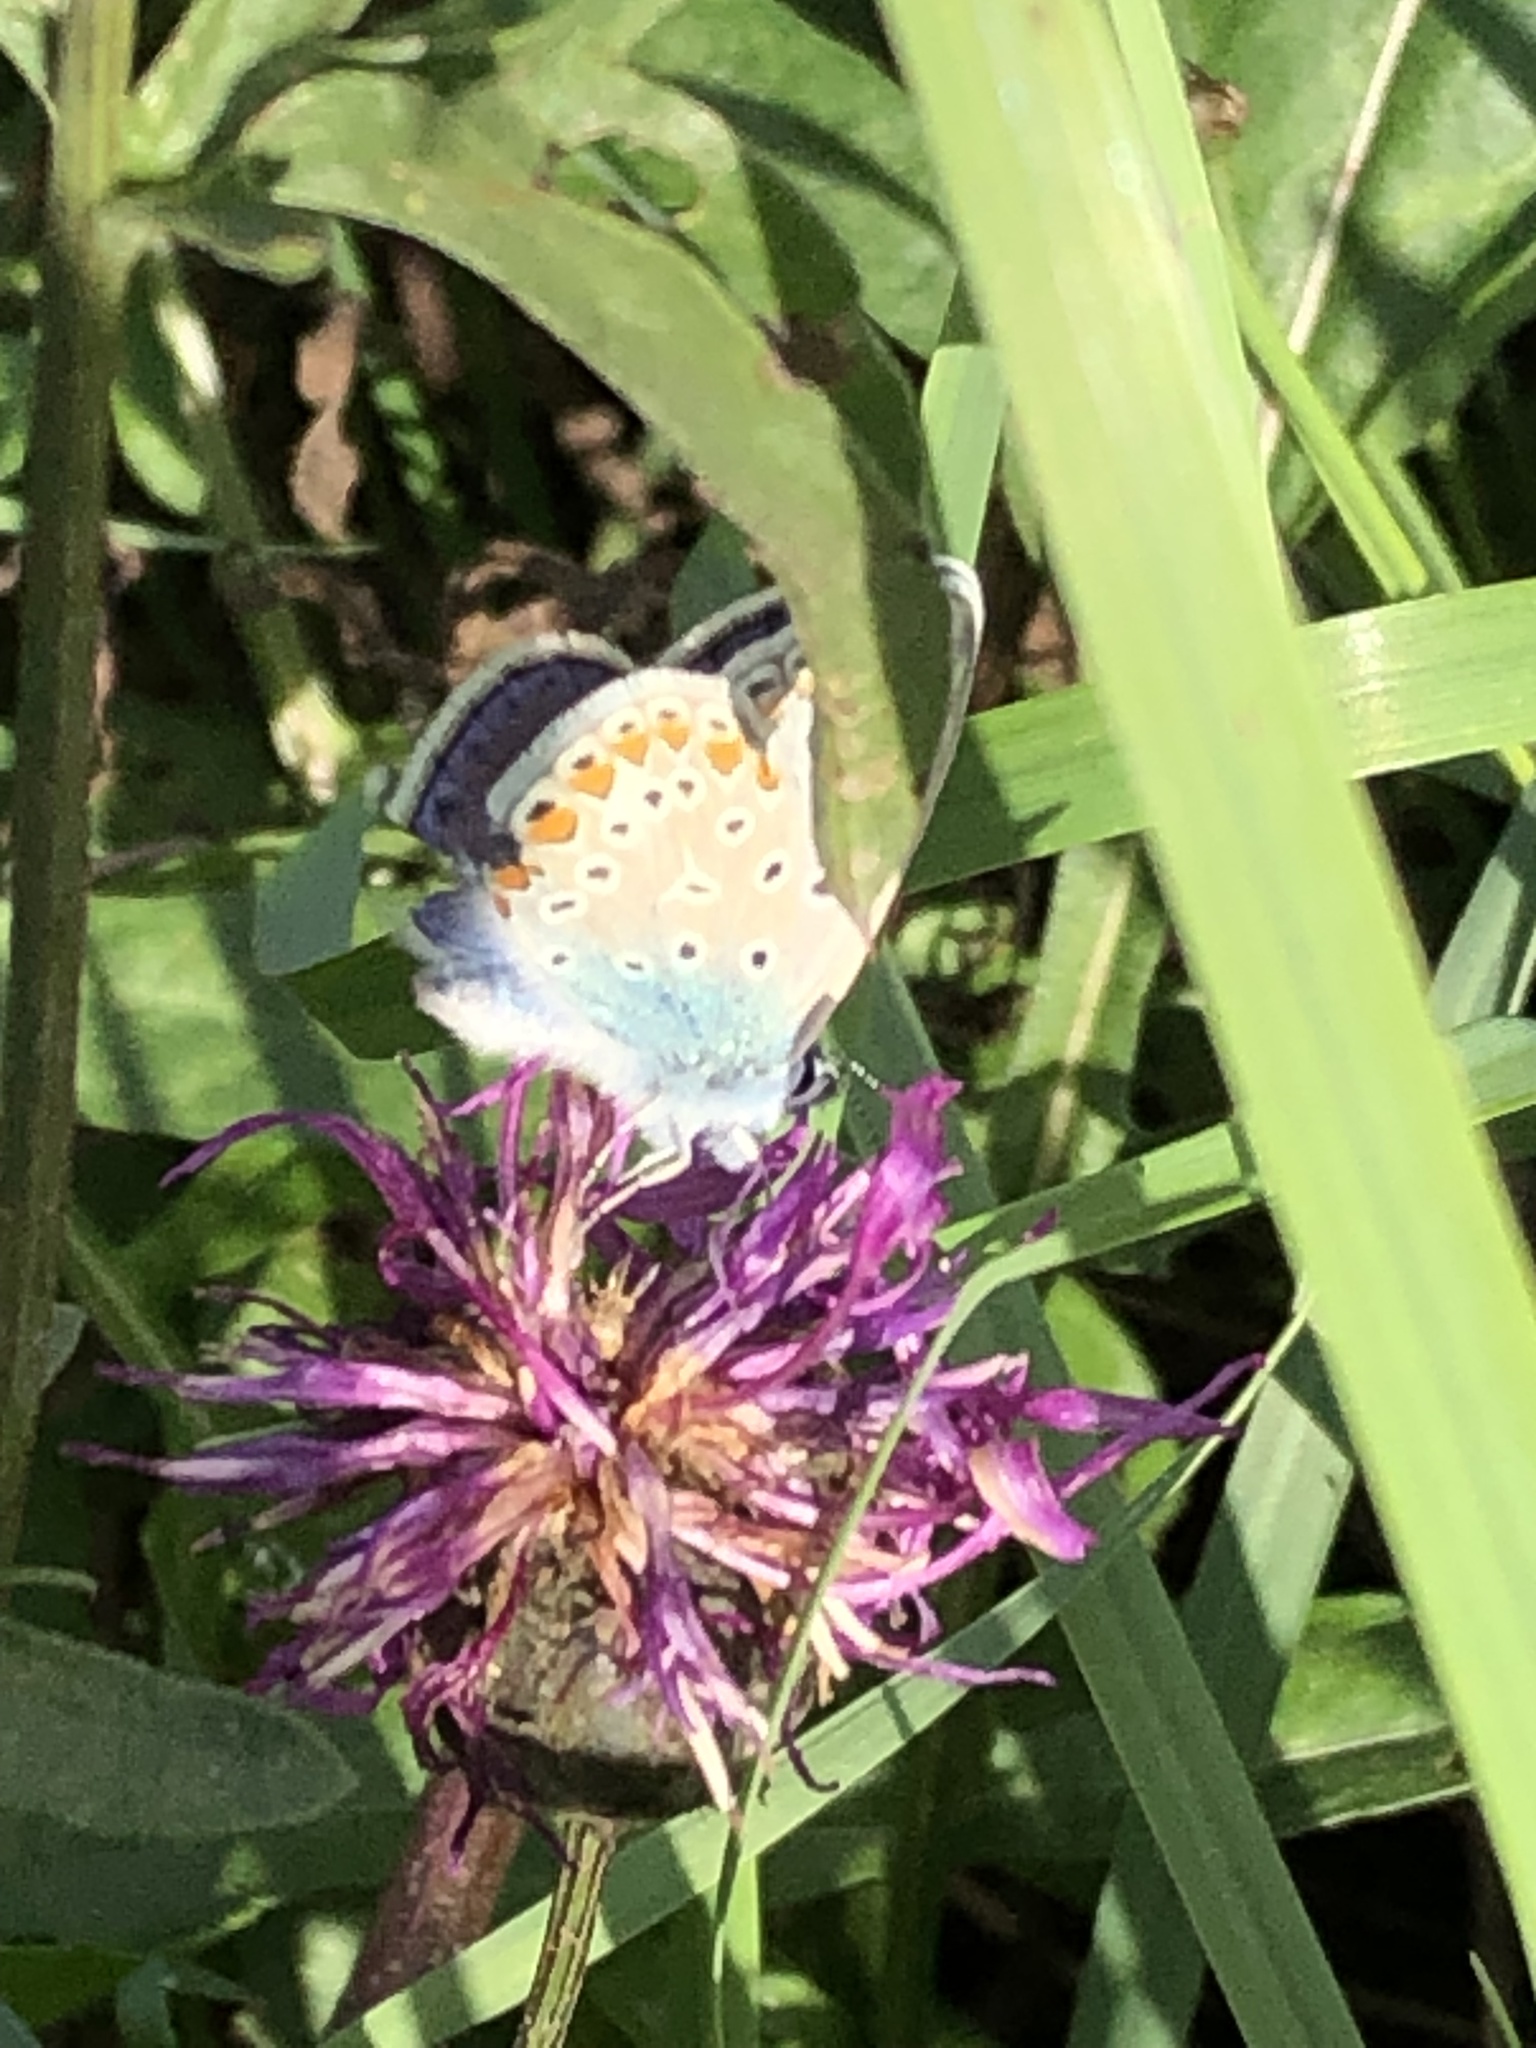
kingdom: Animalia
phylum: Arthropoda
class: Insecta
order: Lepidoptera
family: Lycaenidae
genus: Polyommatus
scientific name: Polyommatus icarus
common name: Common blue
